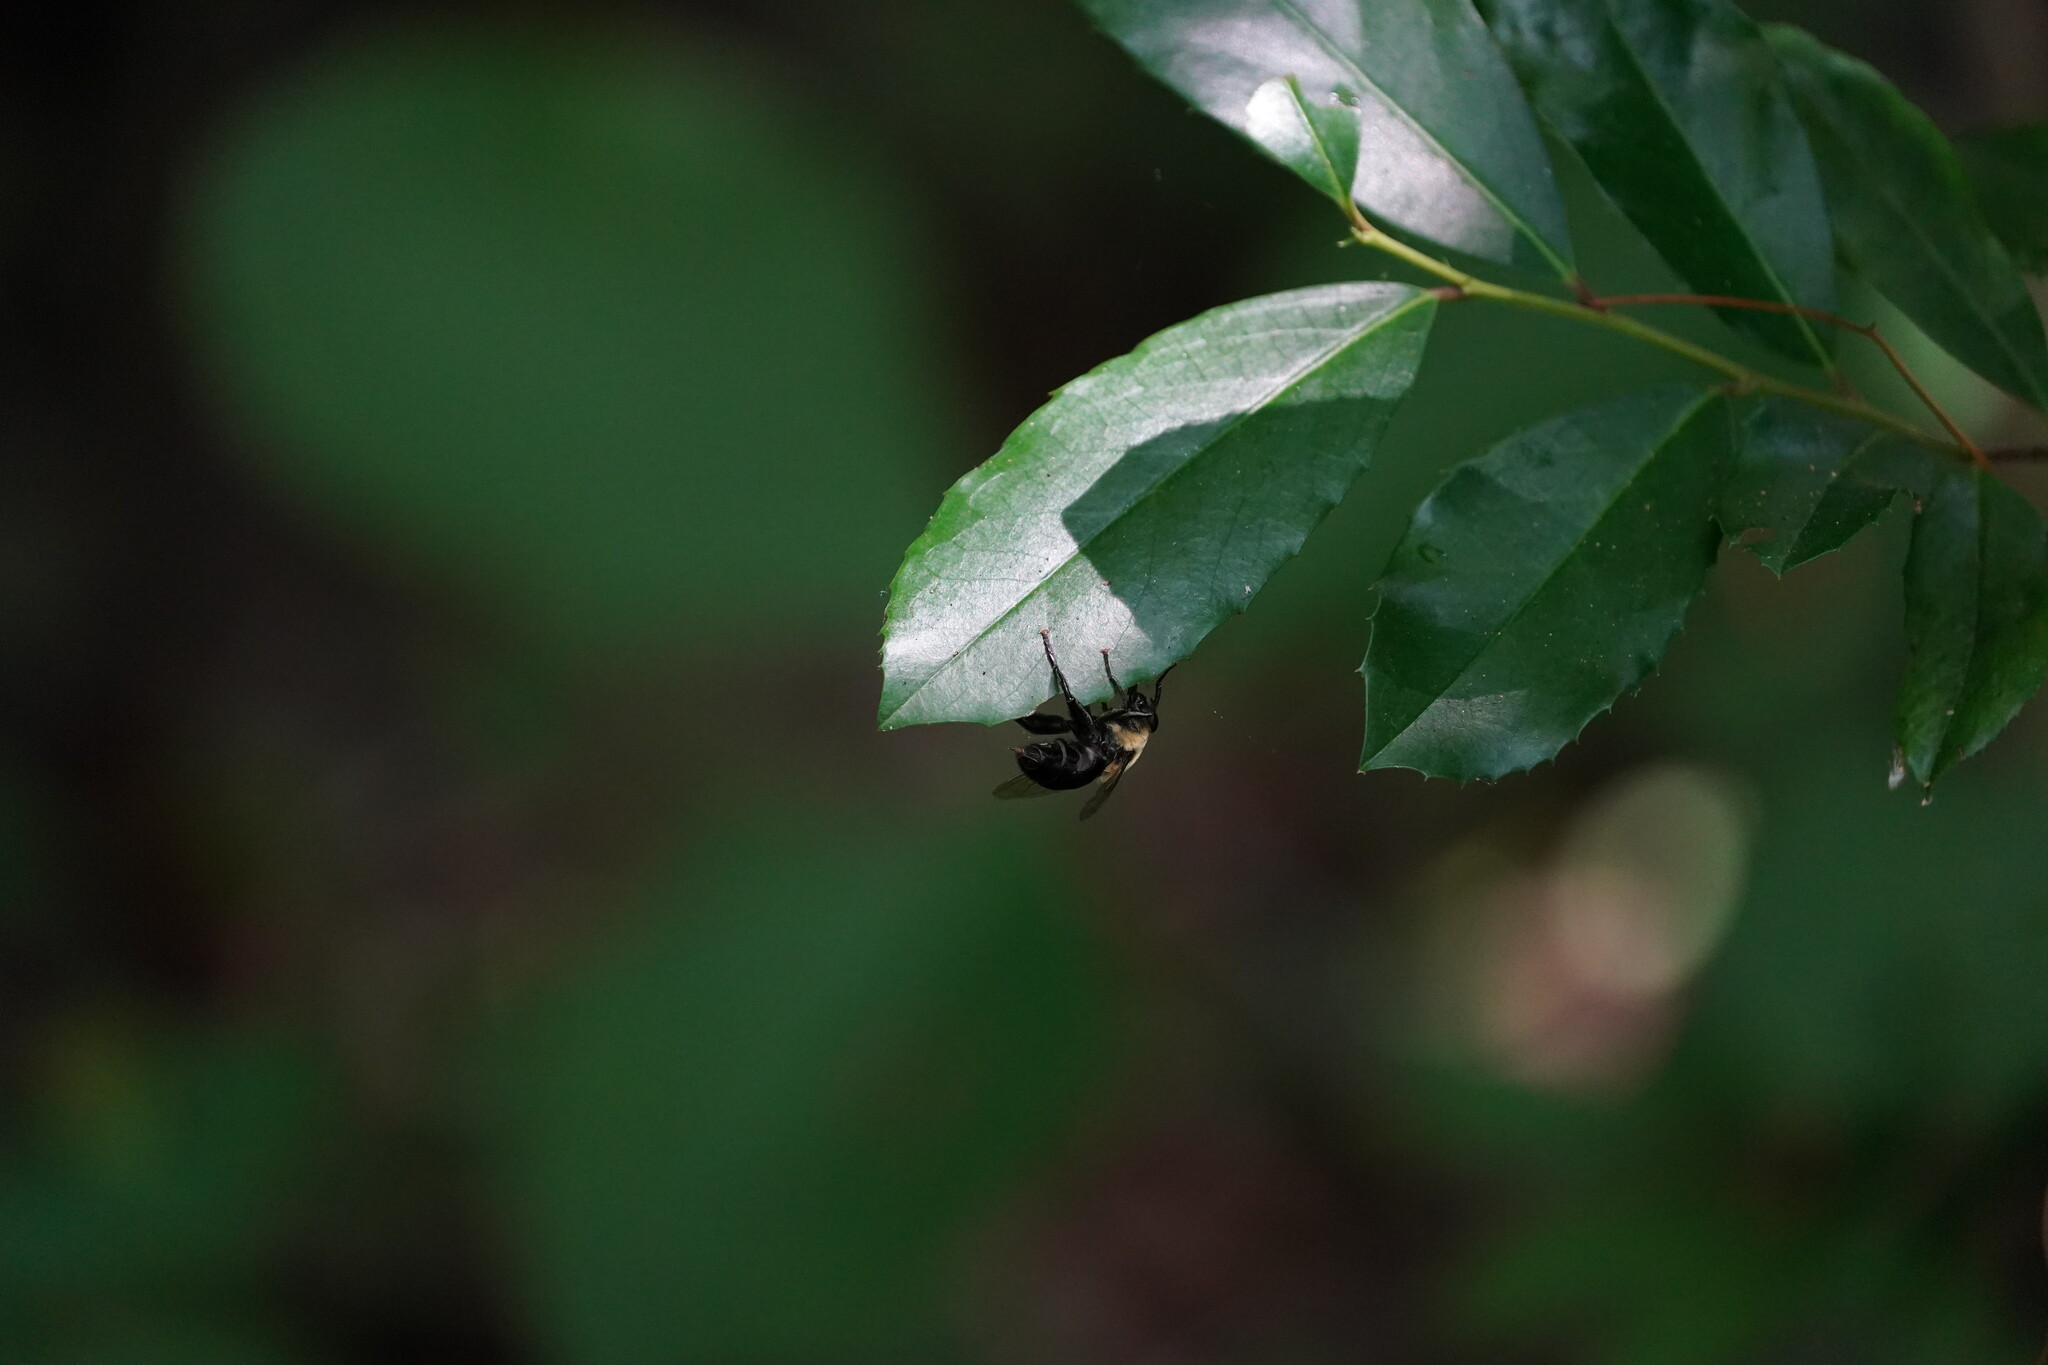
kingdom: Animalia
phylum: Arthropoda
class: Insecta
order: Diptera
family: Syrphidae
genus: Imatisma
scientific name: Imatisma bautias
